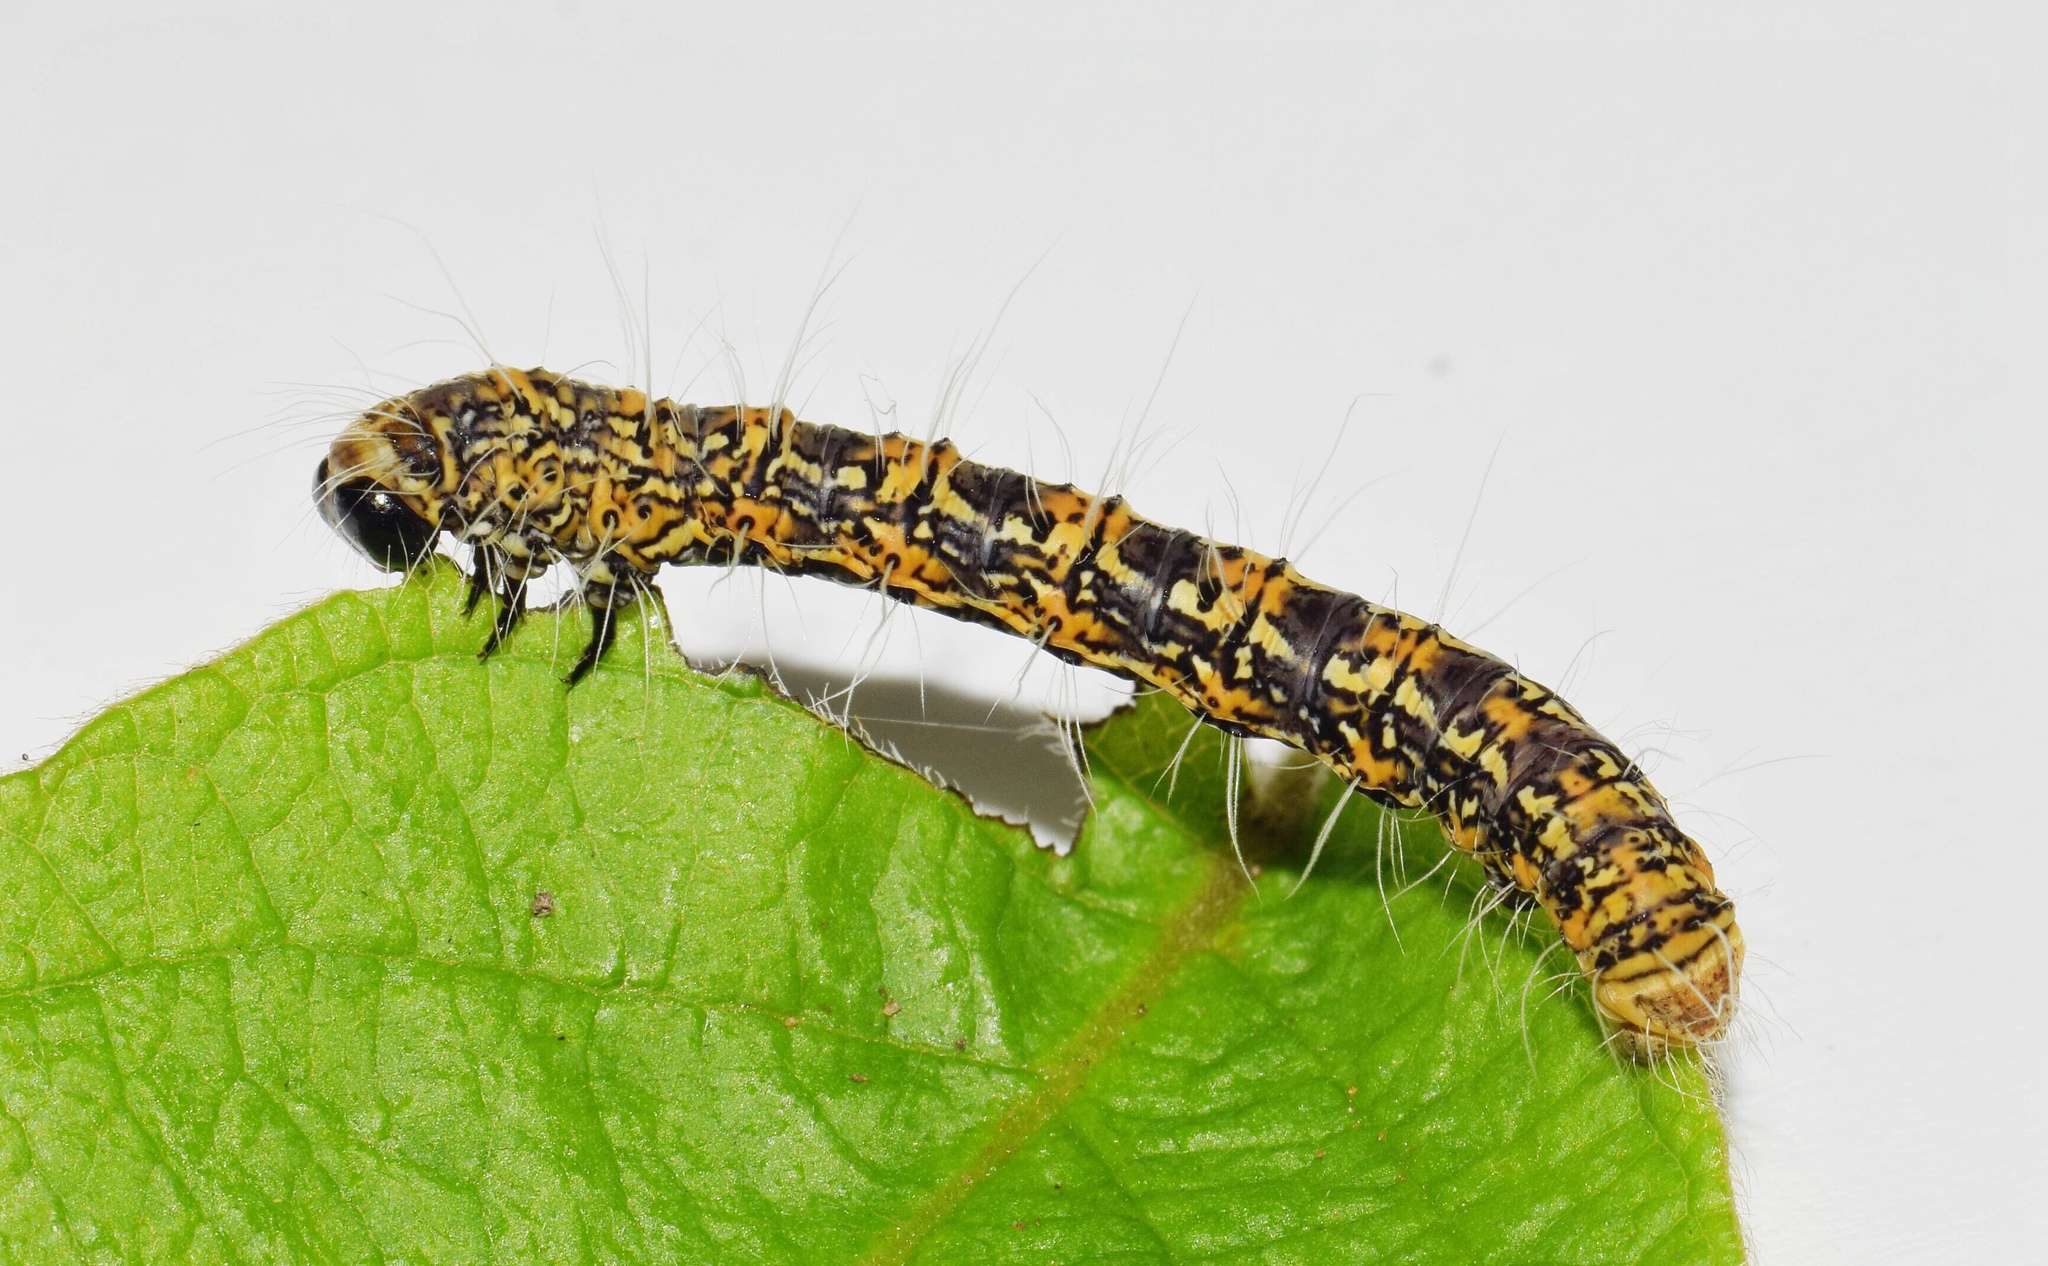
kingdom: Animalia
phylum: Arthropoda
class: Insecta
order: Lepidoptera
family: Geometridae
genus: Zerenopsis
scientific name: Zerenopsis geometrina
